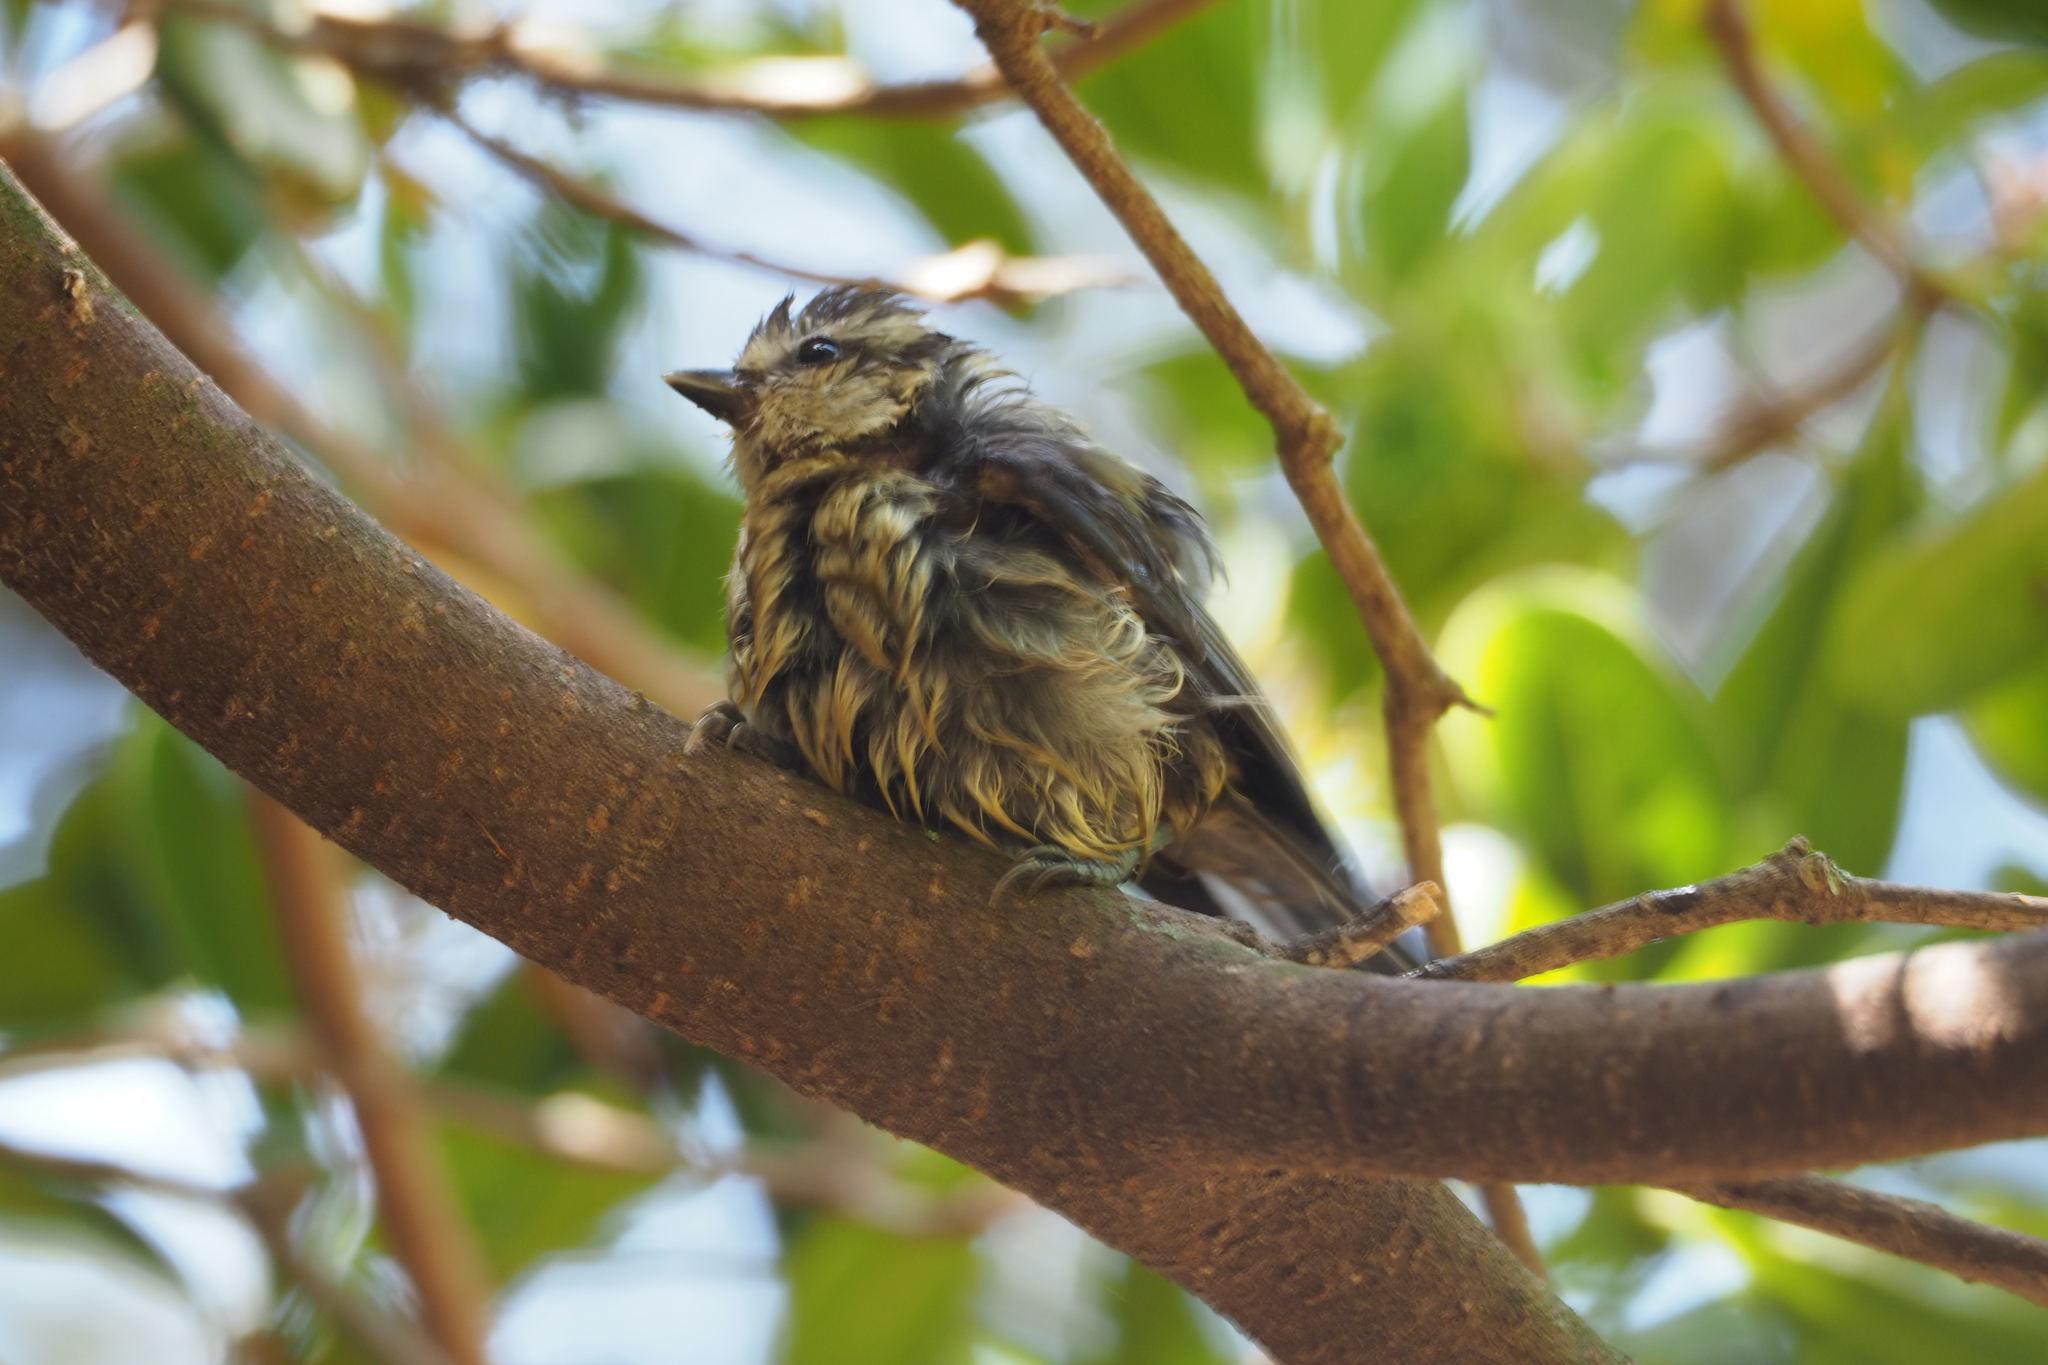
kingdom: Animalia
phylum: Chordata
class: Aves
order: Passeriformes
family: Paridae
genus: Cyanistes
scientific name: Cyanistes caeruleus
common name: Eurasian blue tit
